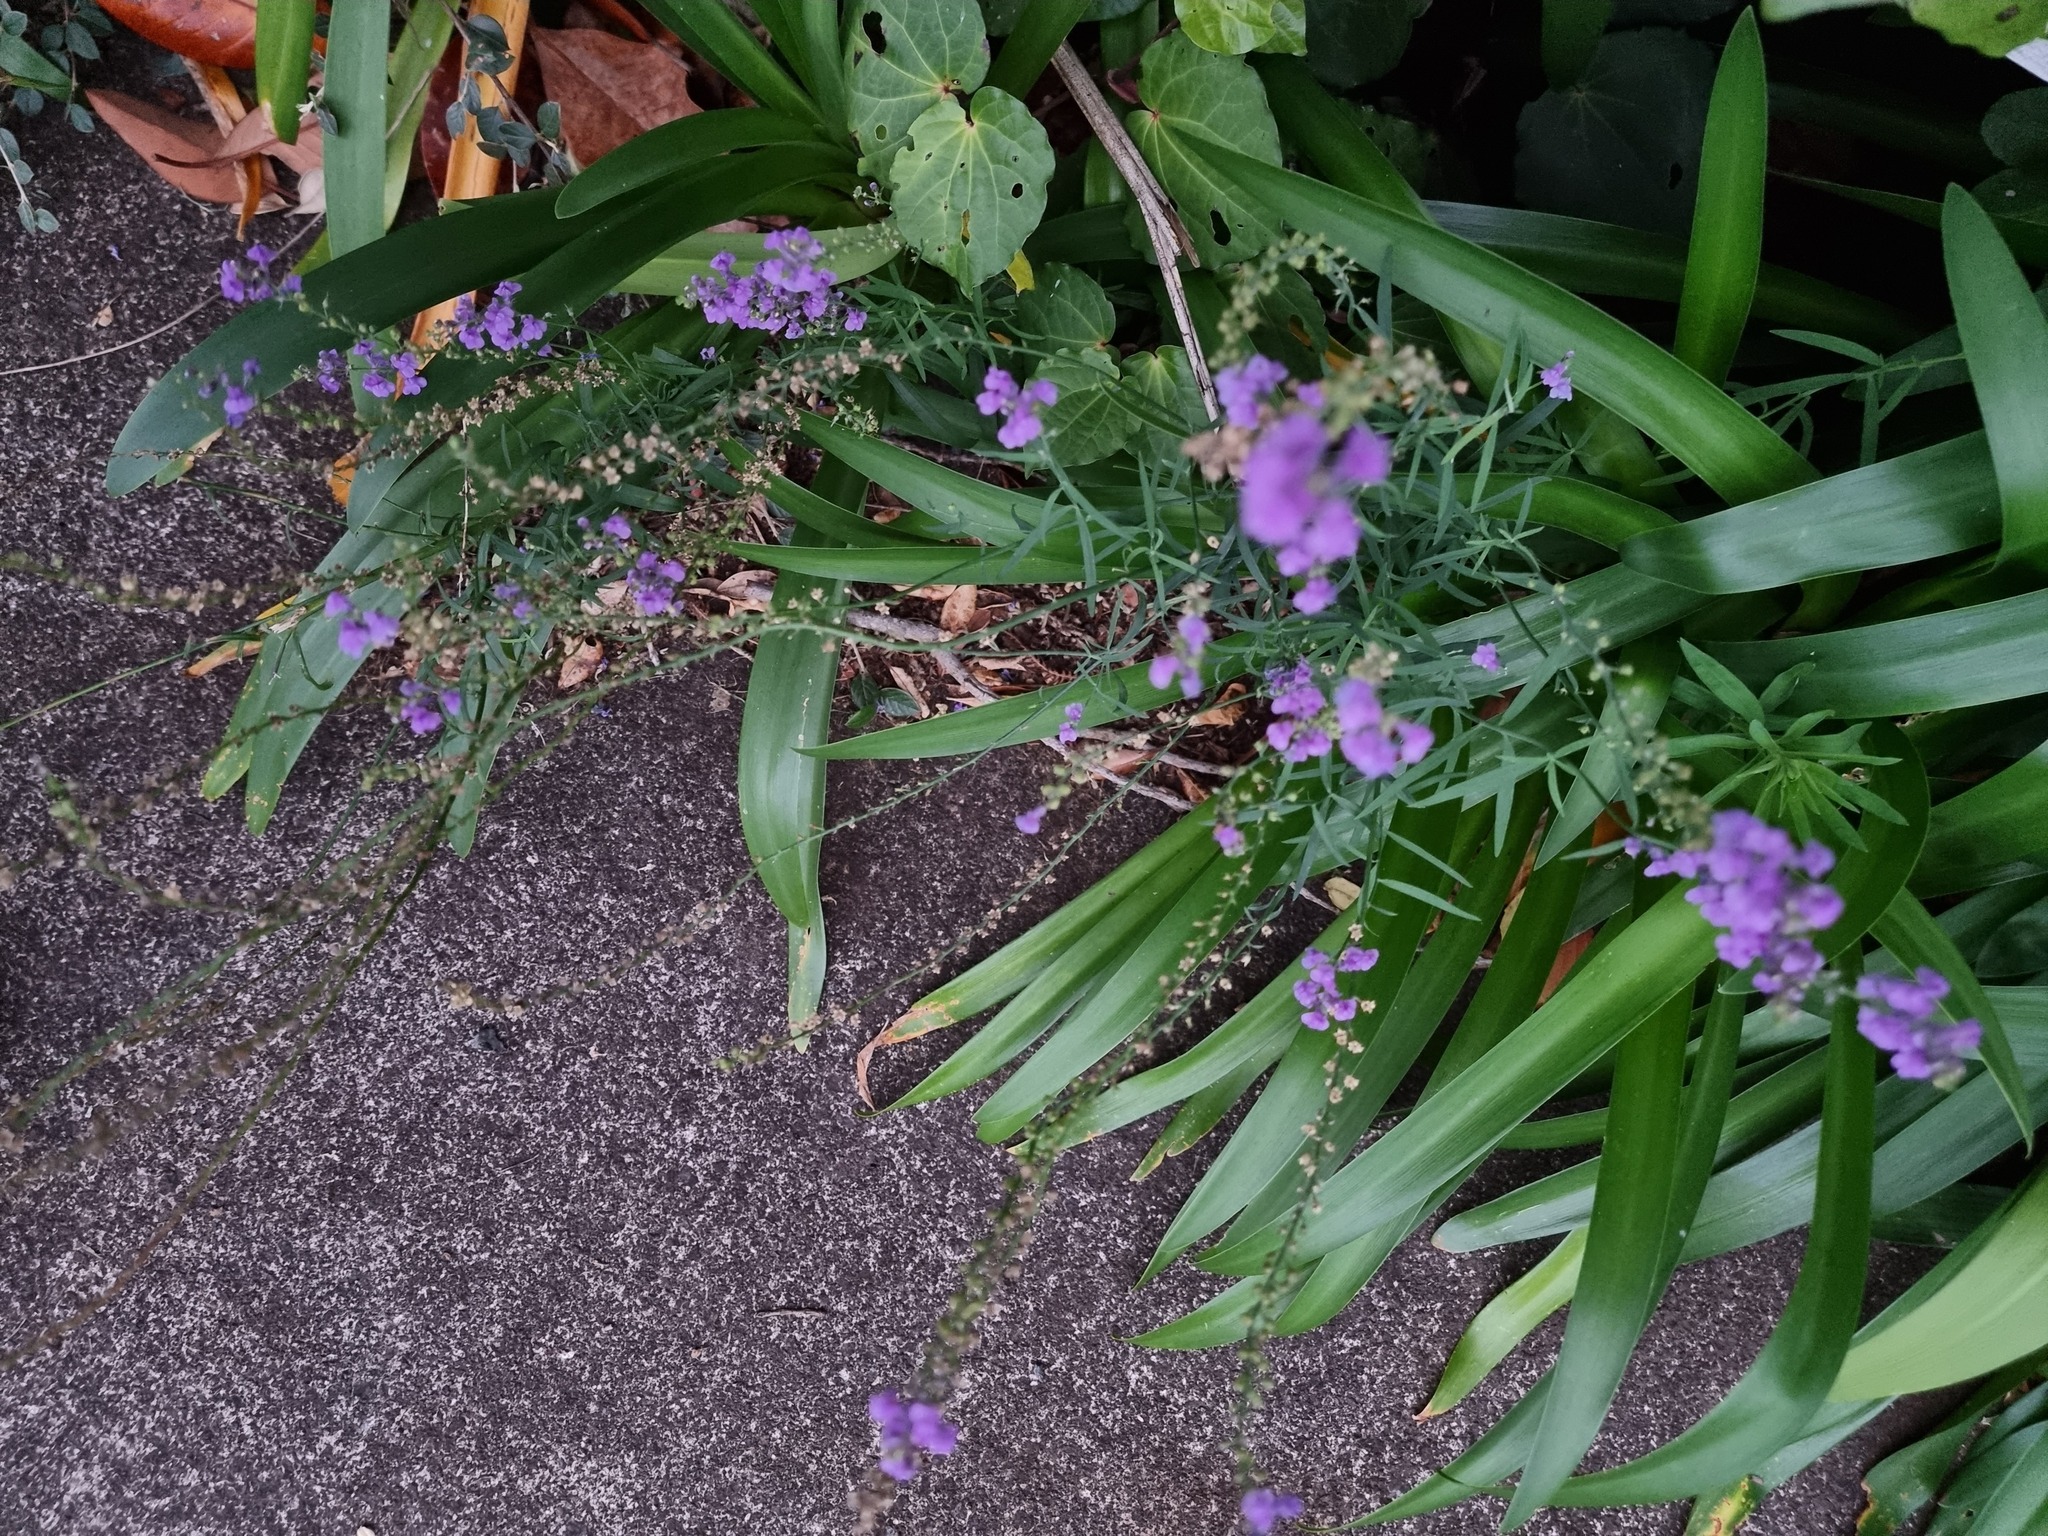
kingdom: Plantae
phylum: Tracheophyta
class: Magnoliopsida
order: Lamiales
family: Plantaginaceae
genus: Linaria
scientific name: Linaria purpurea
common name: Purple toadflax
